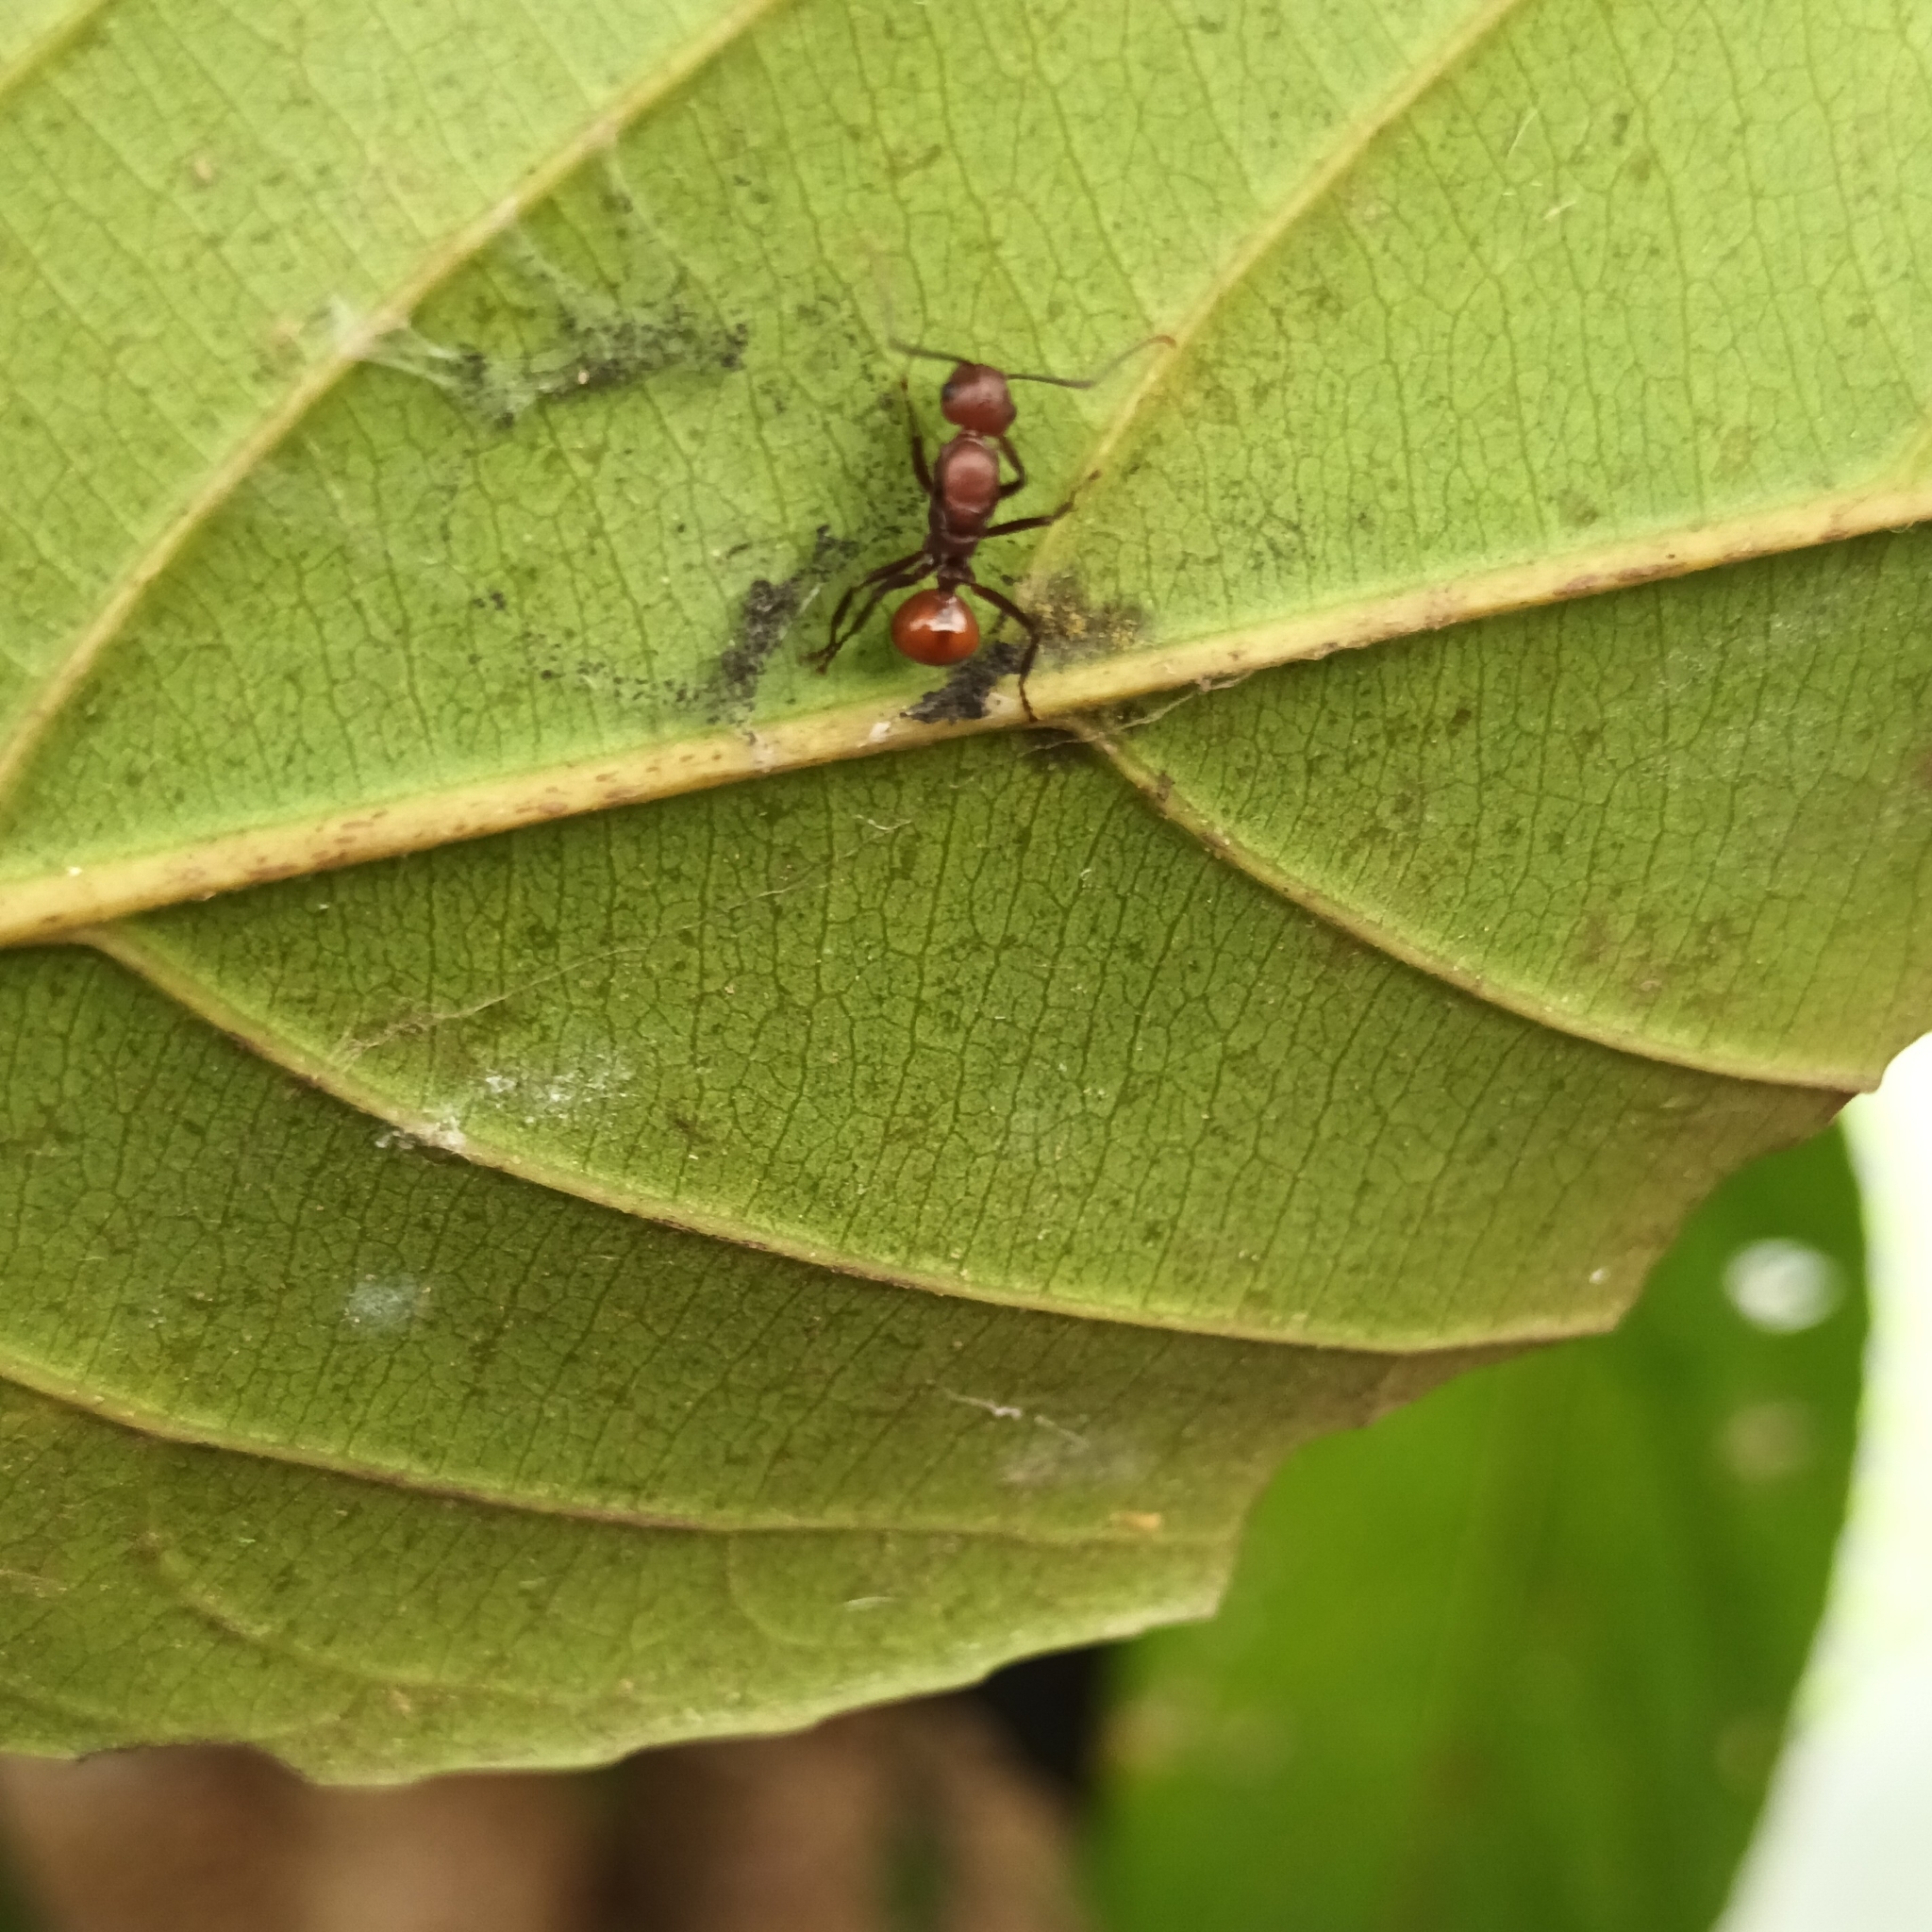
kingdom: Animalia
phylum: Arthropoda
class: Insecta
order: Hymenoptera
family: Formicidae
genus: Polyrhachis
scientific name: Polyrhachis thrinax
